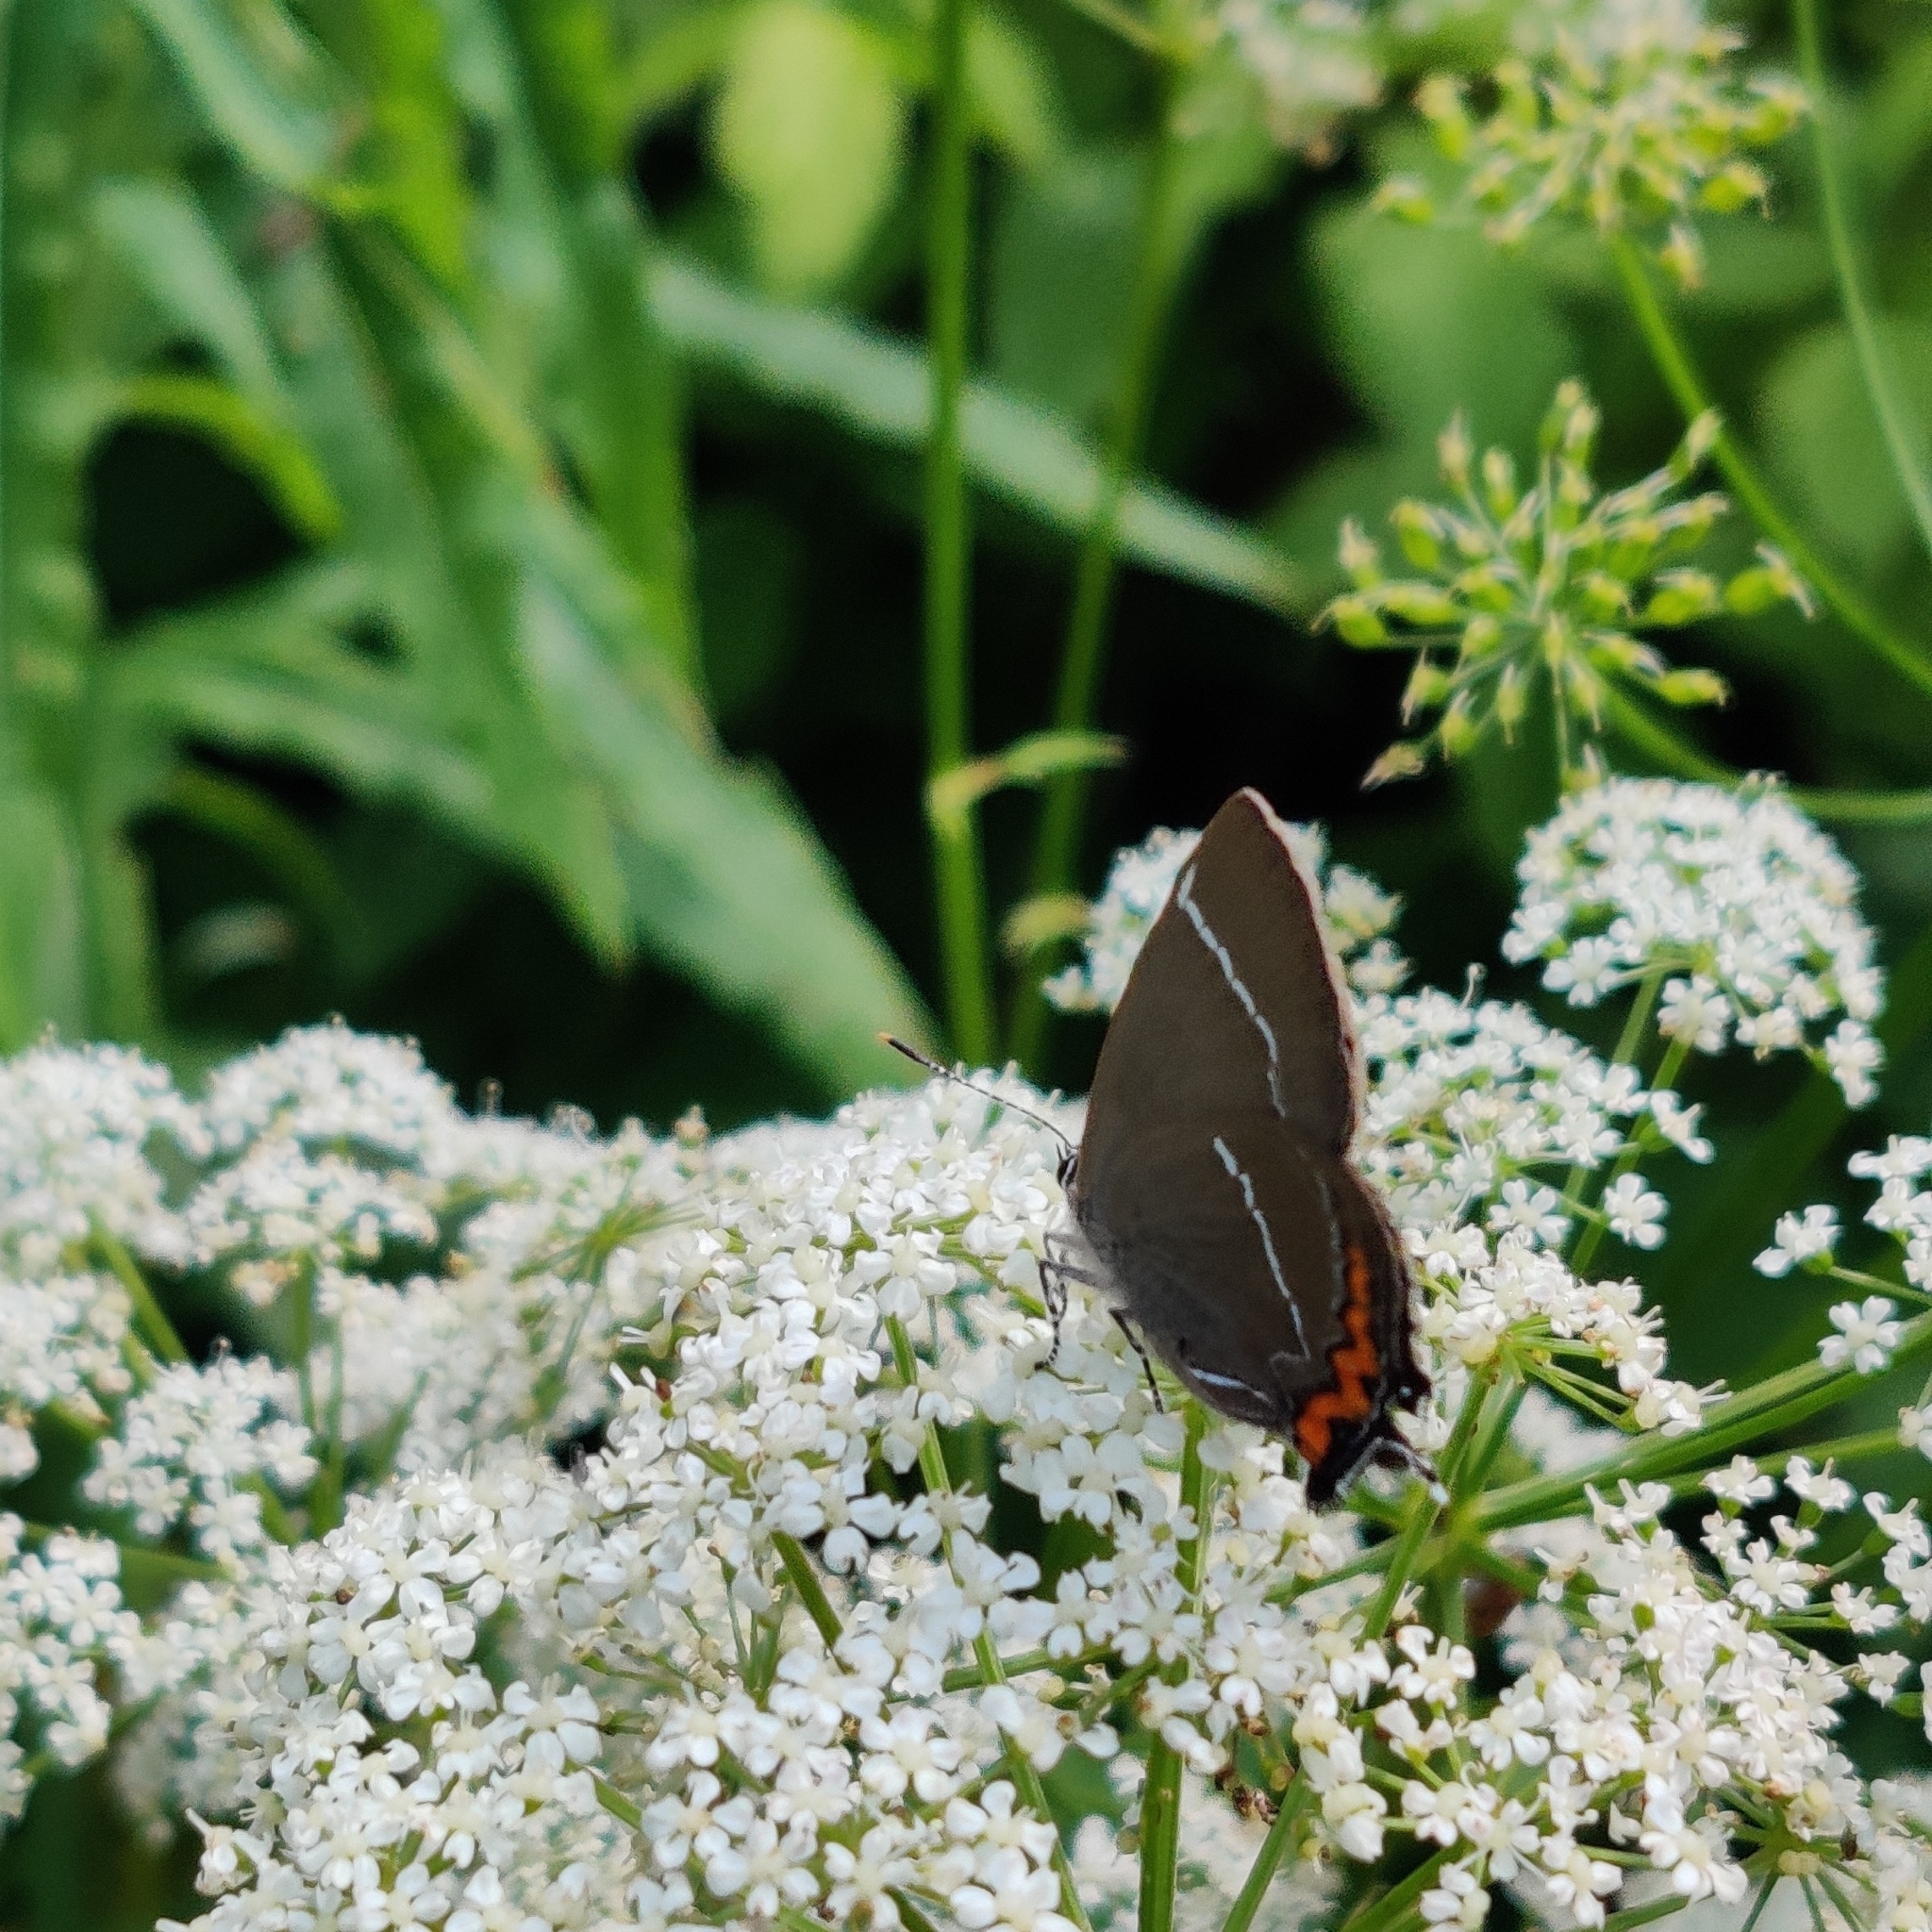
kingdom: Animalia
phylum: Arthropoda
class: Insecta
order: Lepidoptera
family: Lycaenidae
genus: Satyrium
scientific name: Satyrium w-album
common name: White-letter hairstreak
